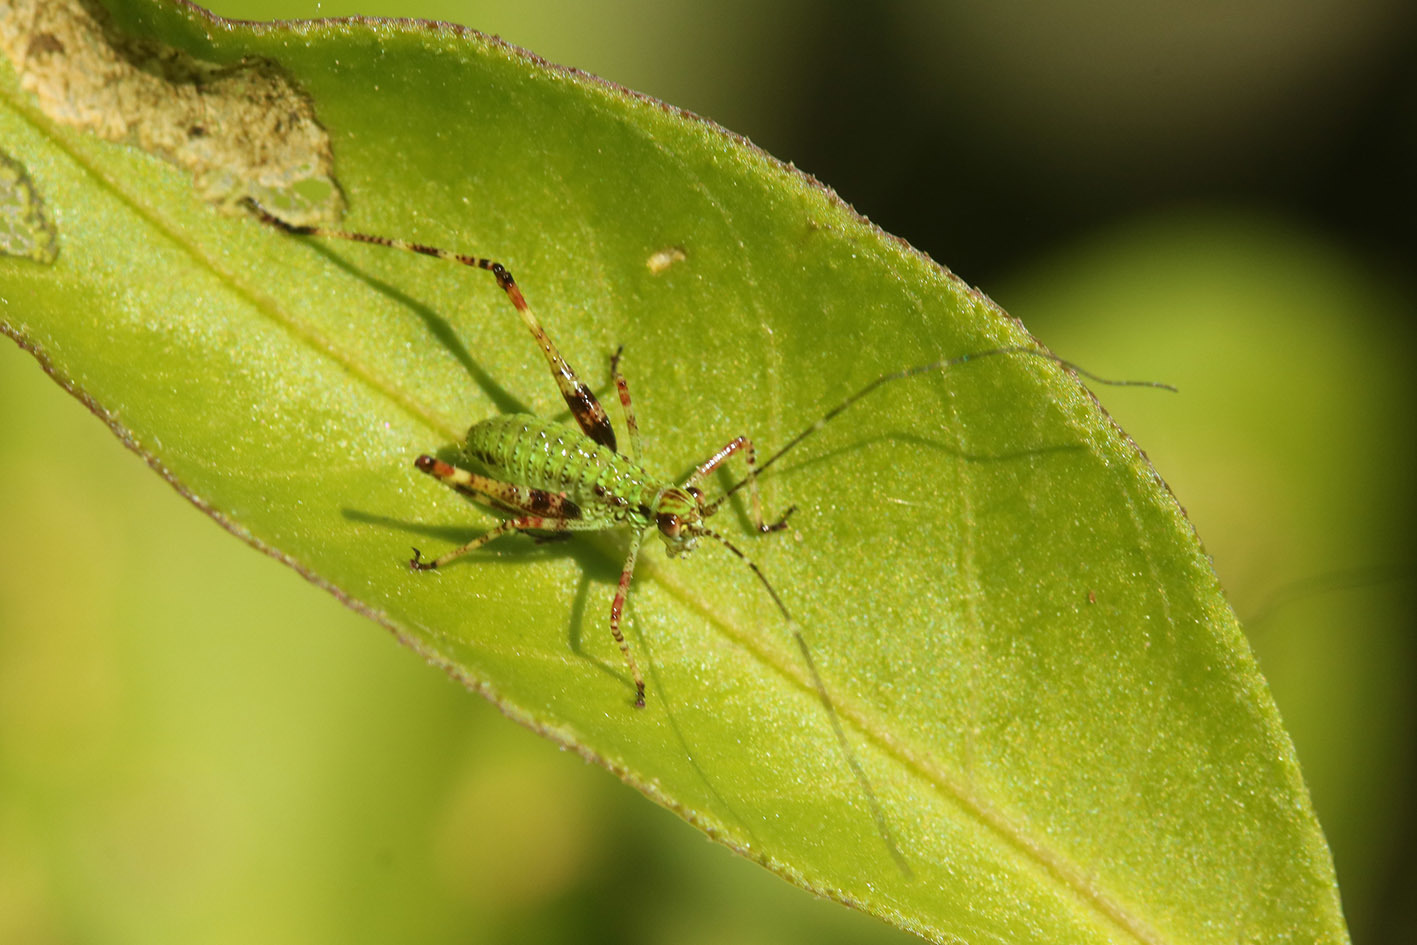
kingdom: Animalia
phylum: Arthropoda
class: Insecta
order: Orthoptera
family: Tettigoniidae
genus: Ligocatinus
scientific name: Ligocatinus spinatus
